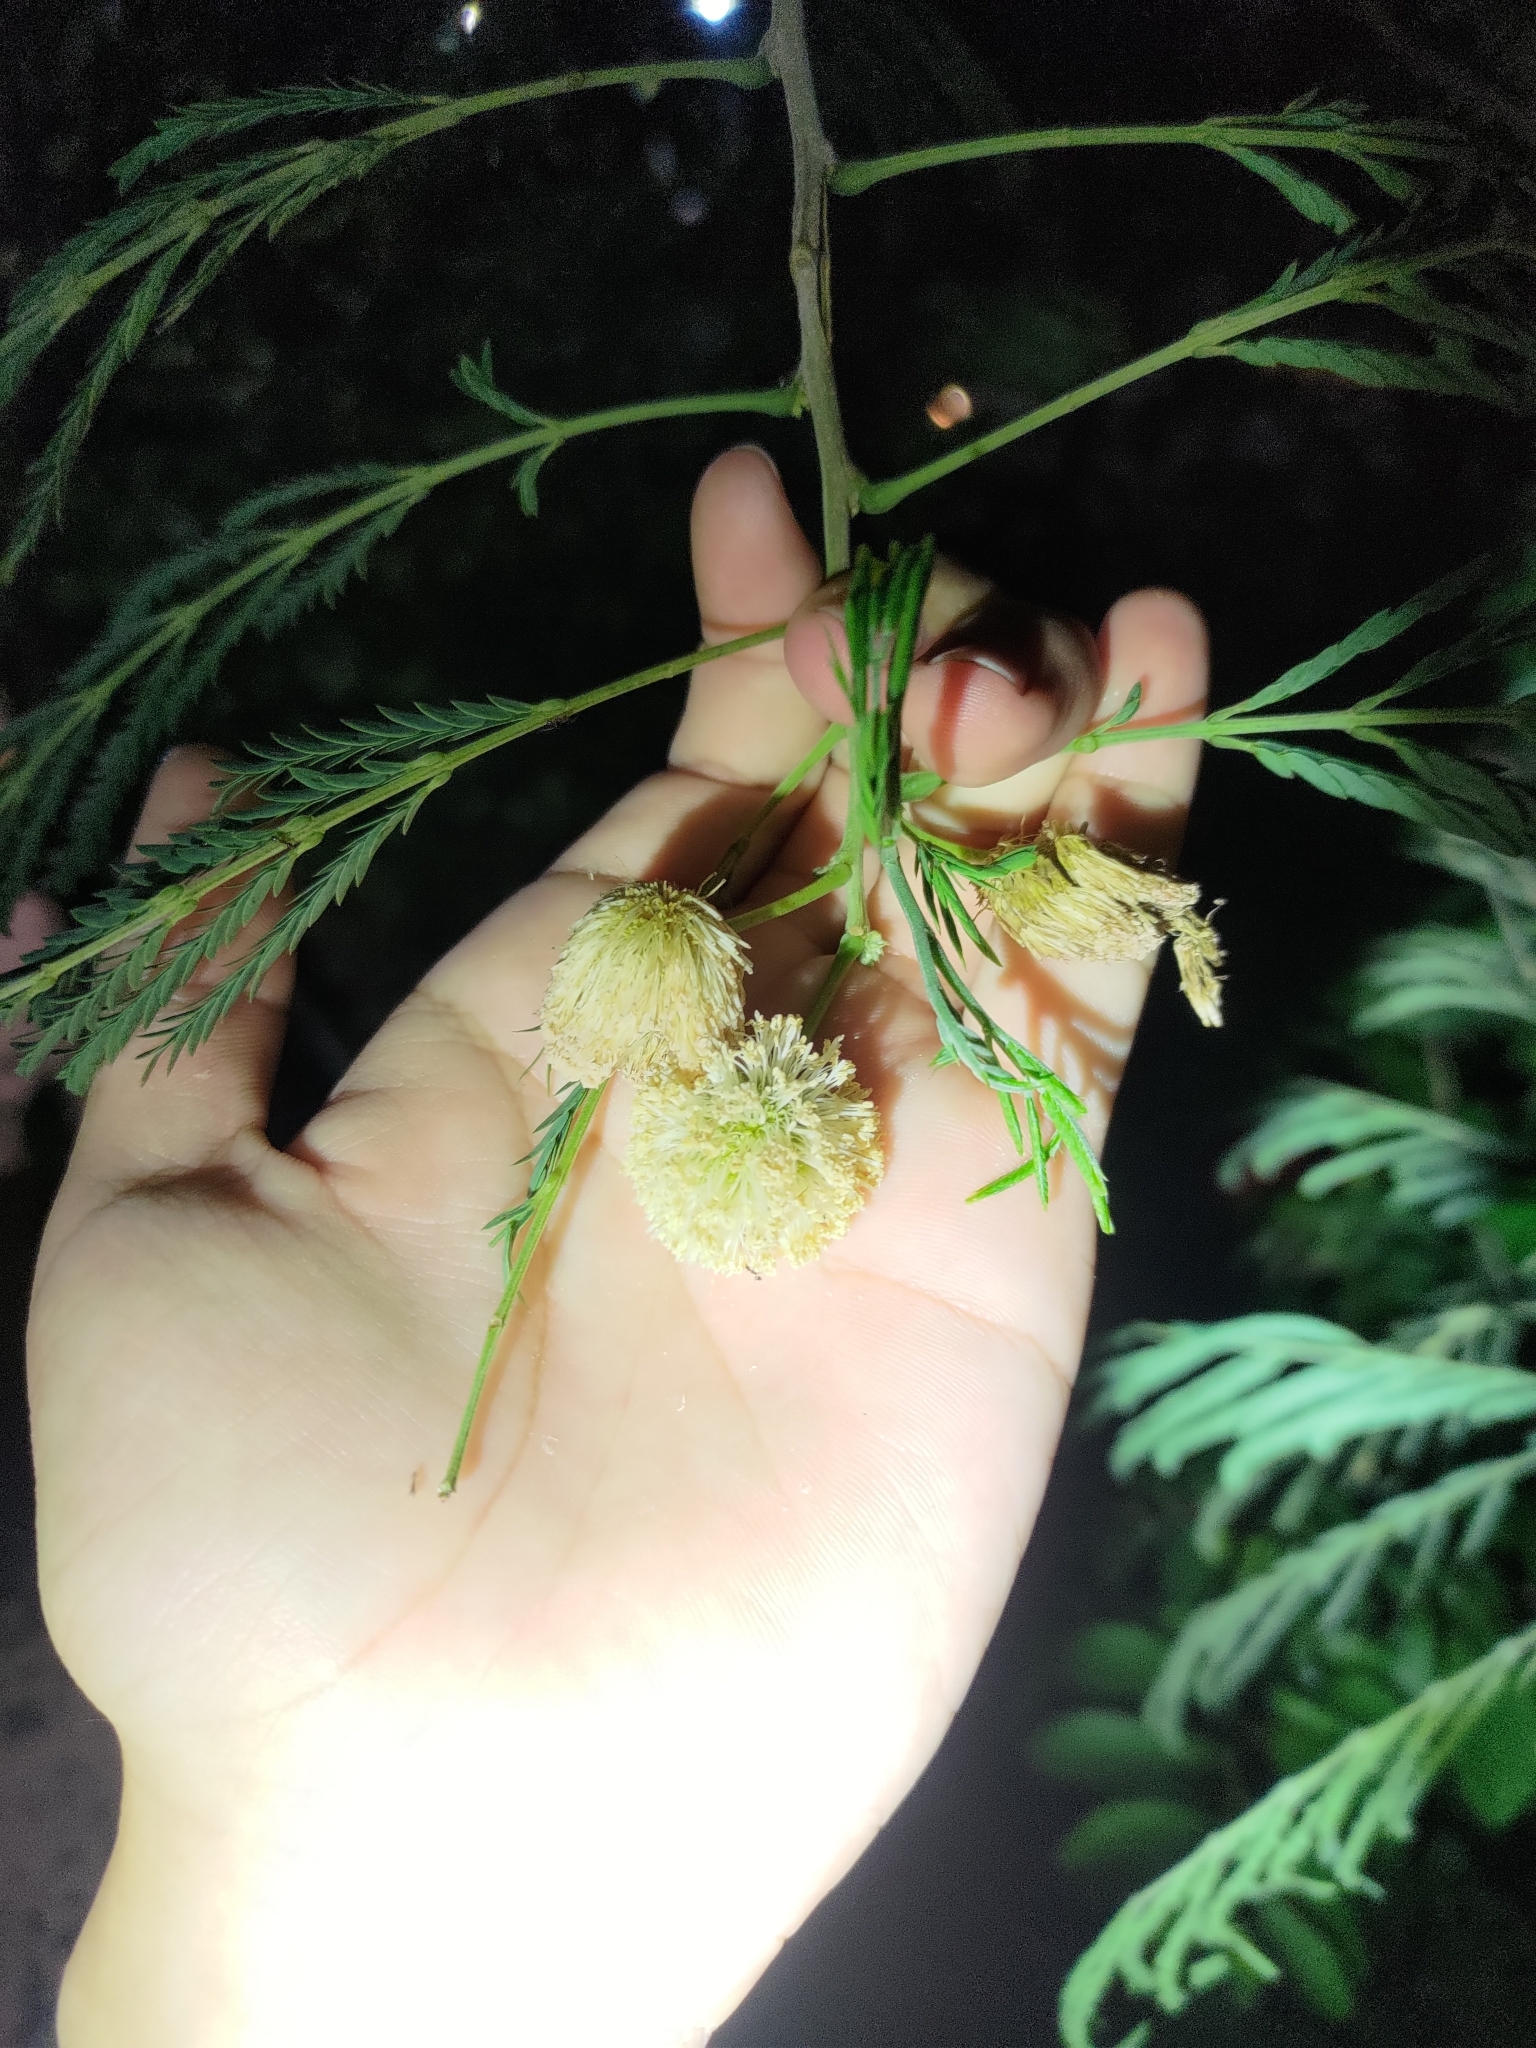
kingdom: Plantae
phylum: Tracheophyta
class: Magnoliopsida
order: Fabales
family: Fabaceae
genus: Leucaena
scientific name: Leucaena leucocephala
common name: White leadtree
